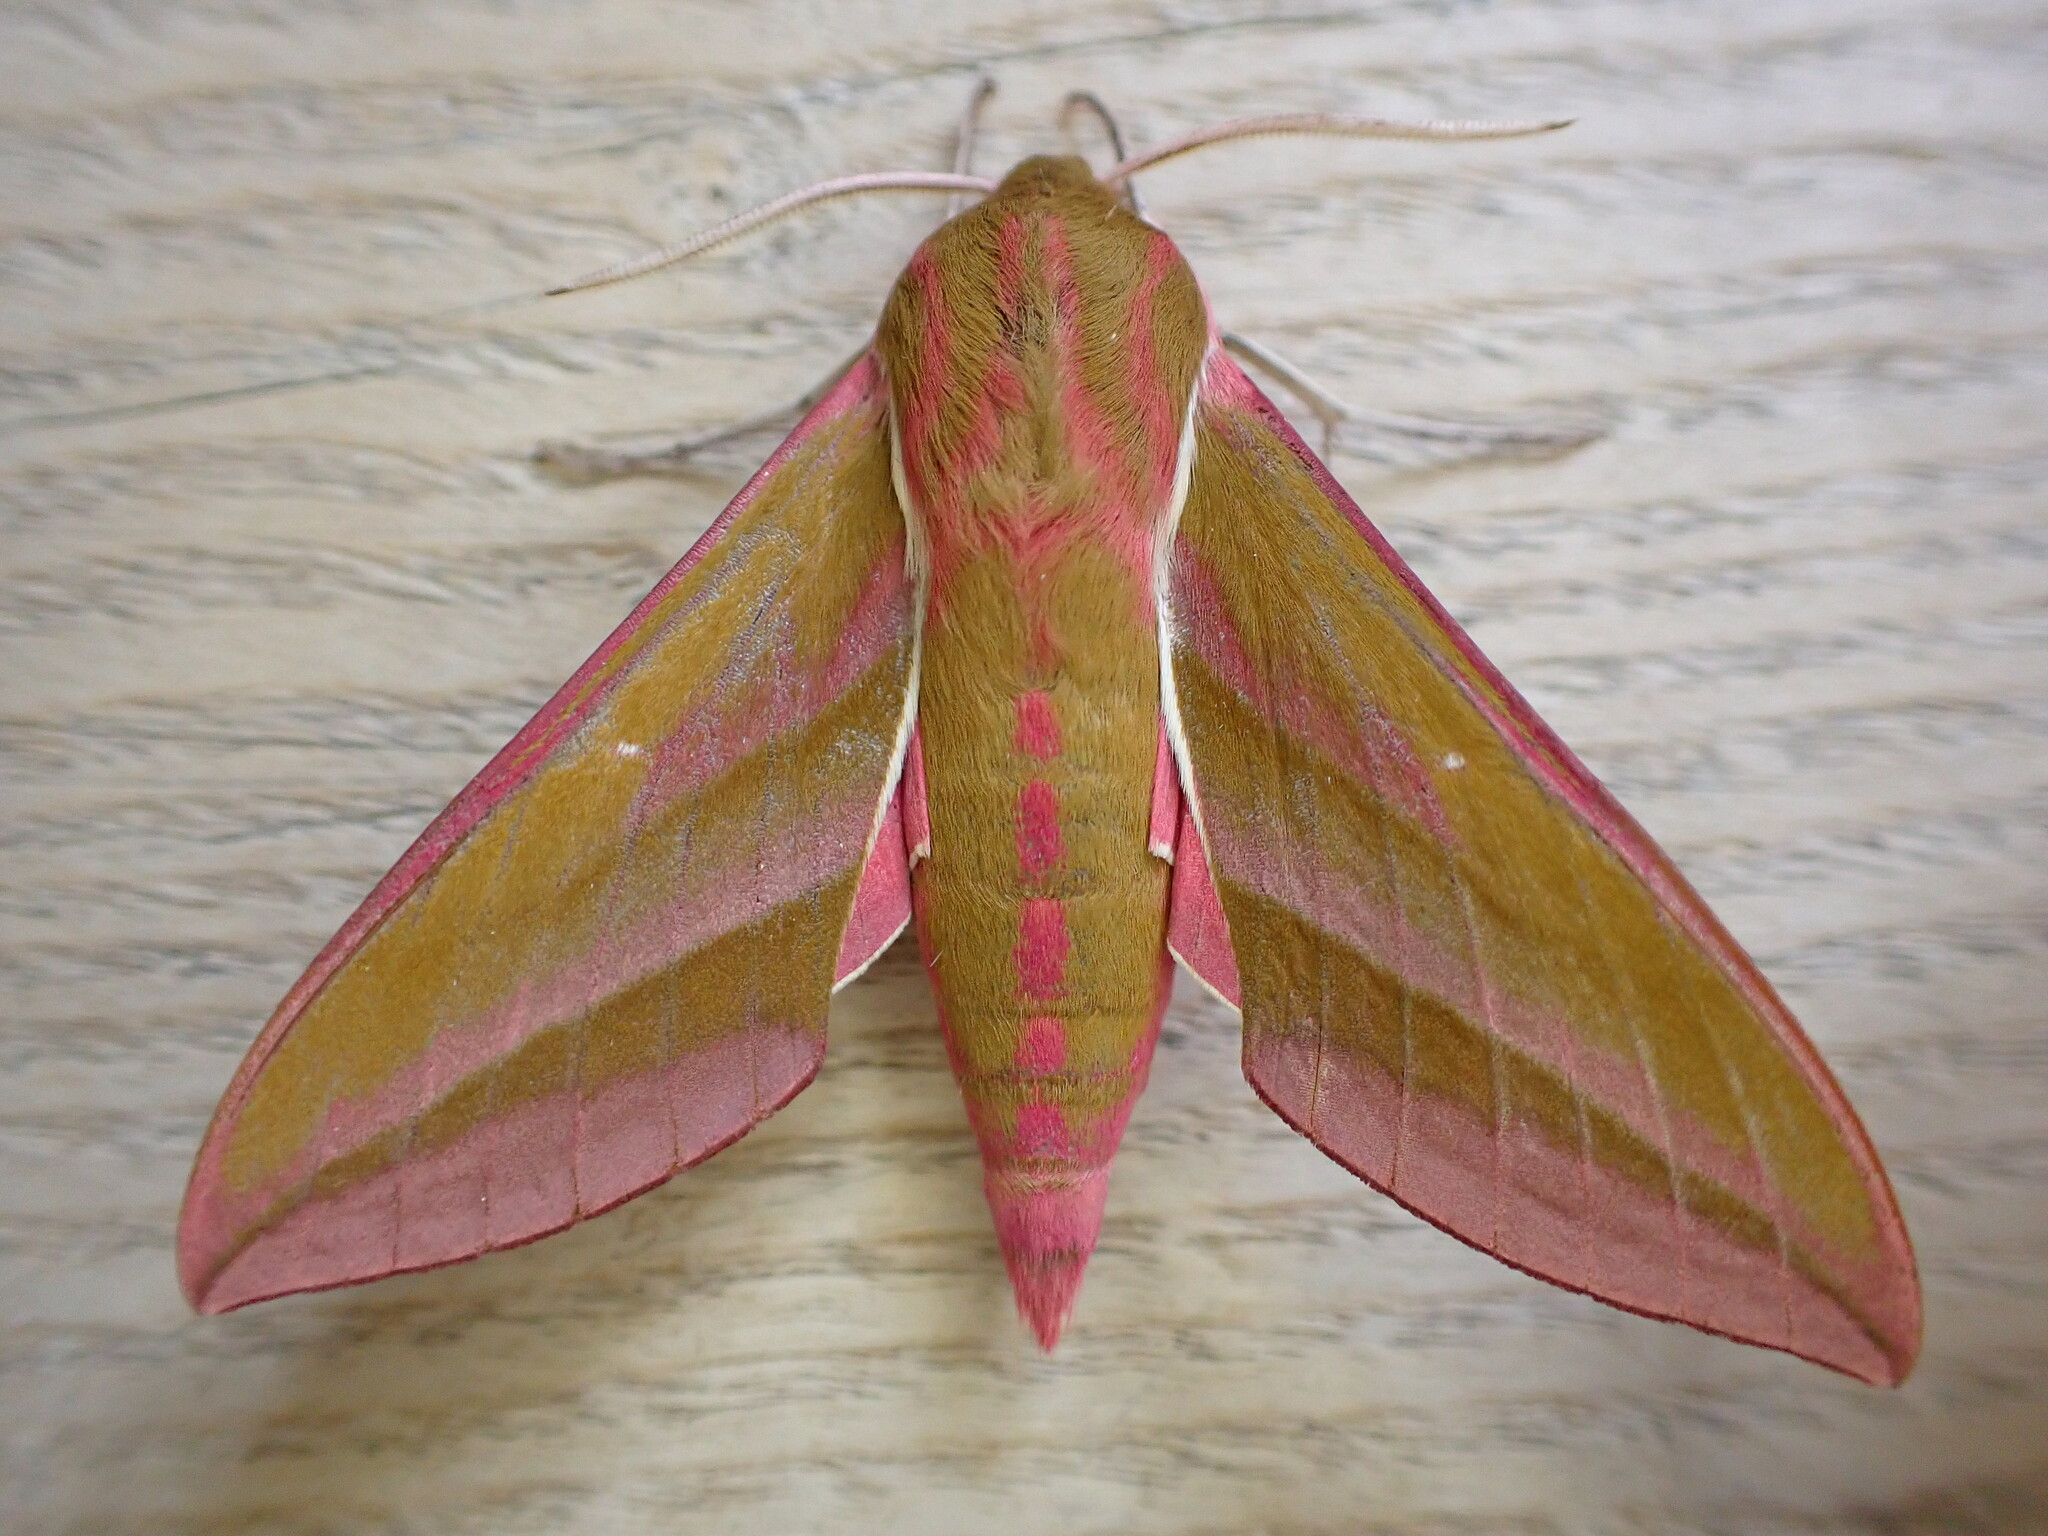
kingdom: Animalia
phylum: Arthropoda
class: Insecta
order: Lepidoptera
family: Sphingidae
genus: Deilephila
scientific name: Deilephila elpenor
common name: Elephant hawk-moth
